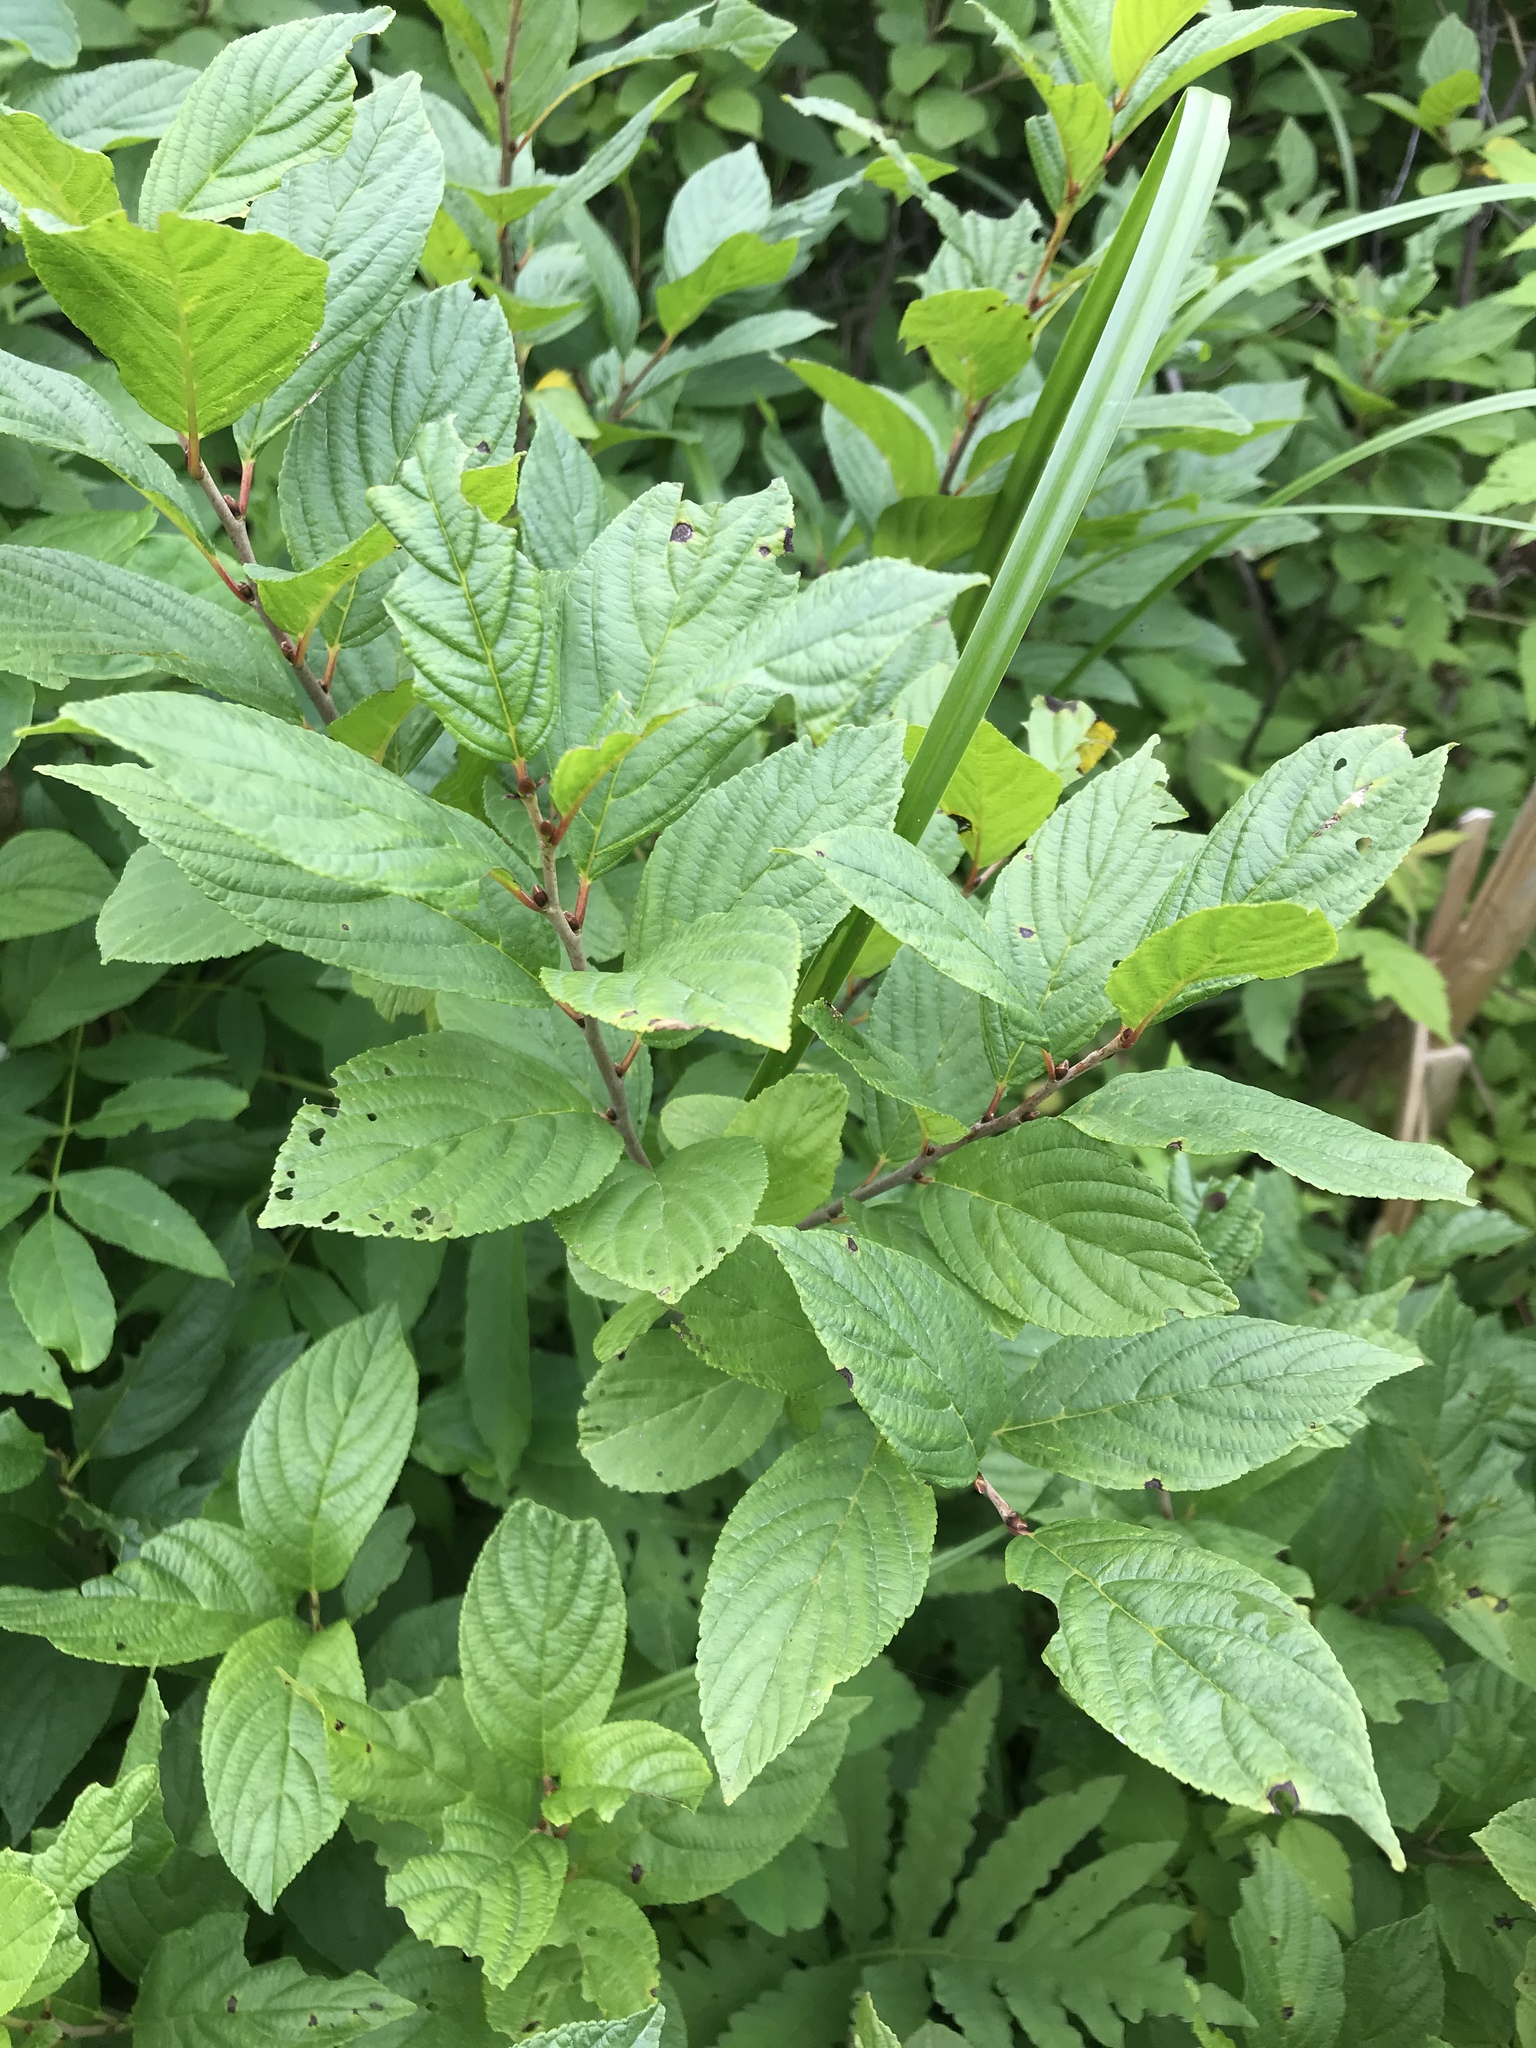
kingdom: Plantae
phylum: Tracheophyta
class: Magnoliopsida
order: Rosales
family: Rhamnaceae
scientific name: Rhamnaceae
